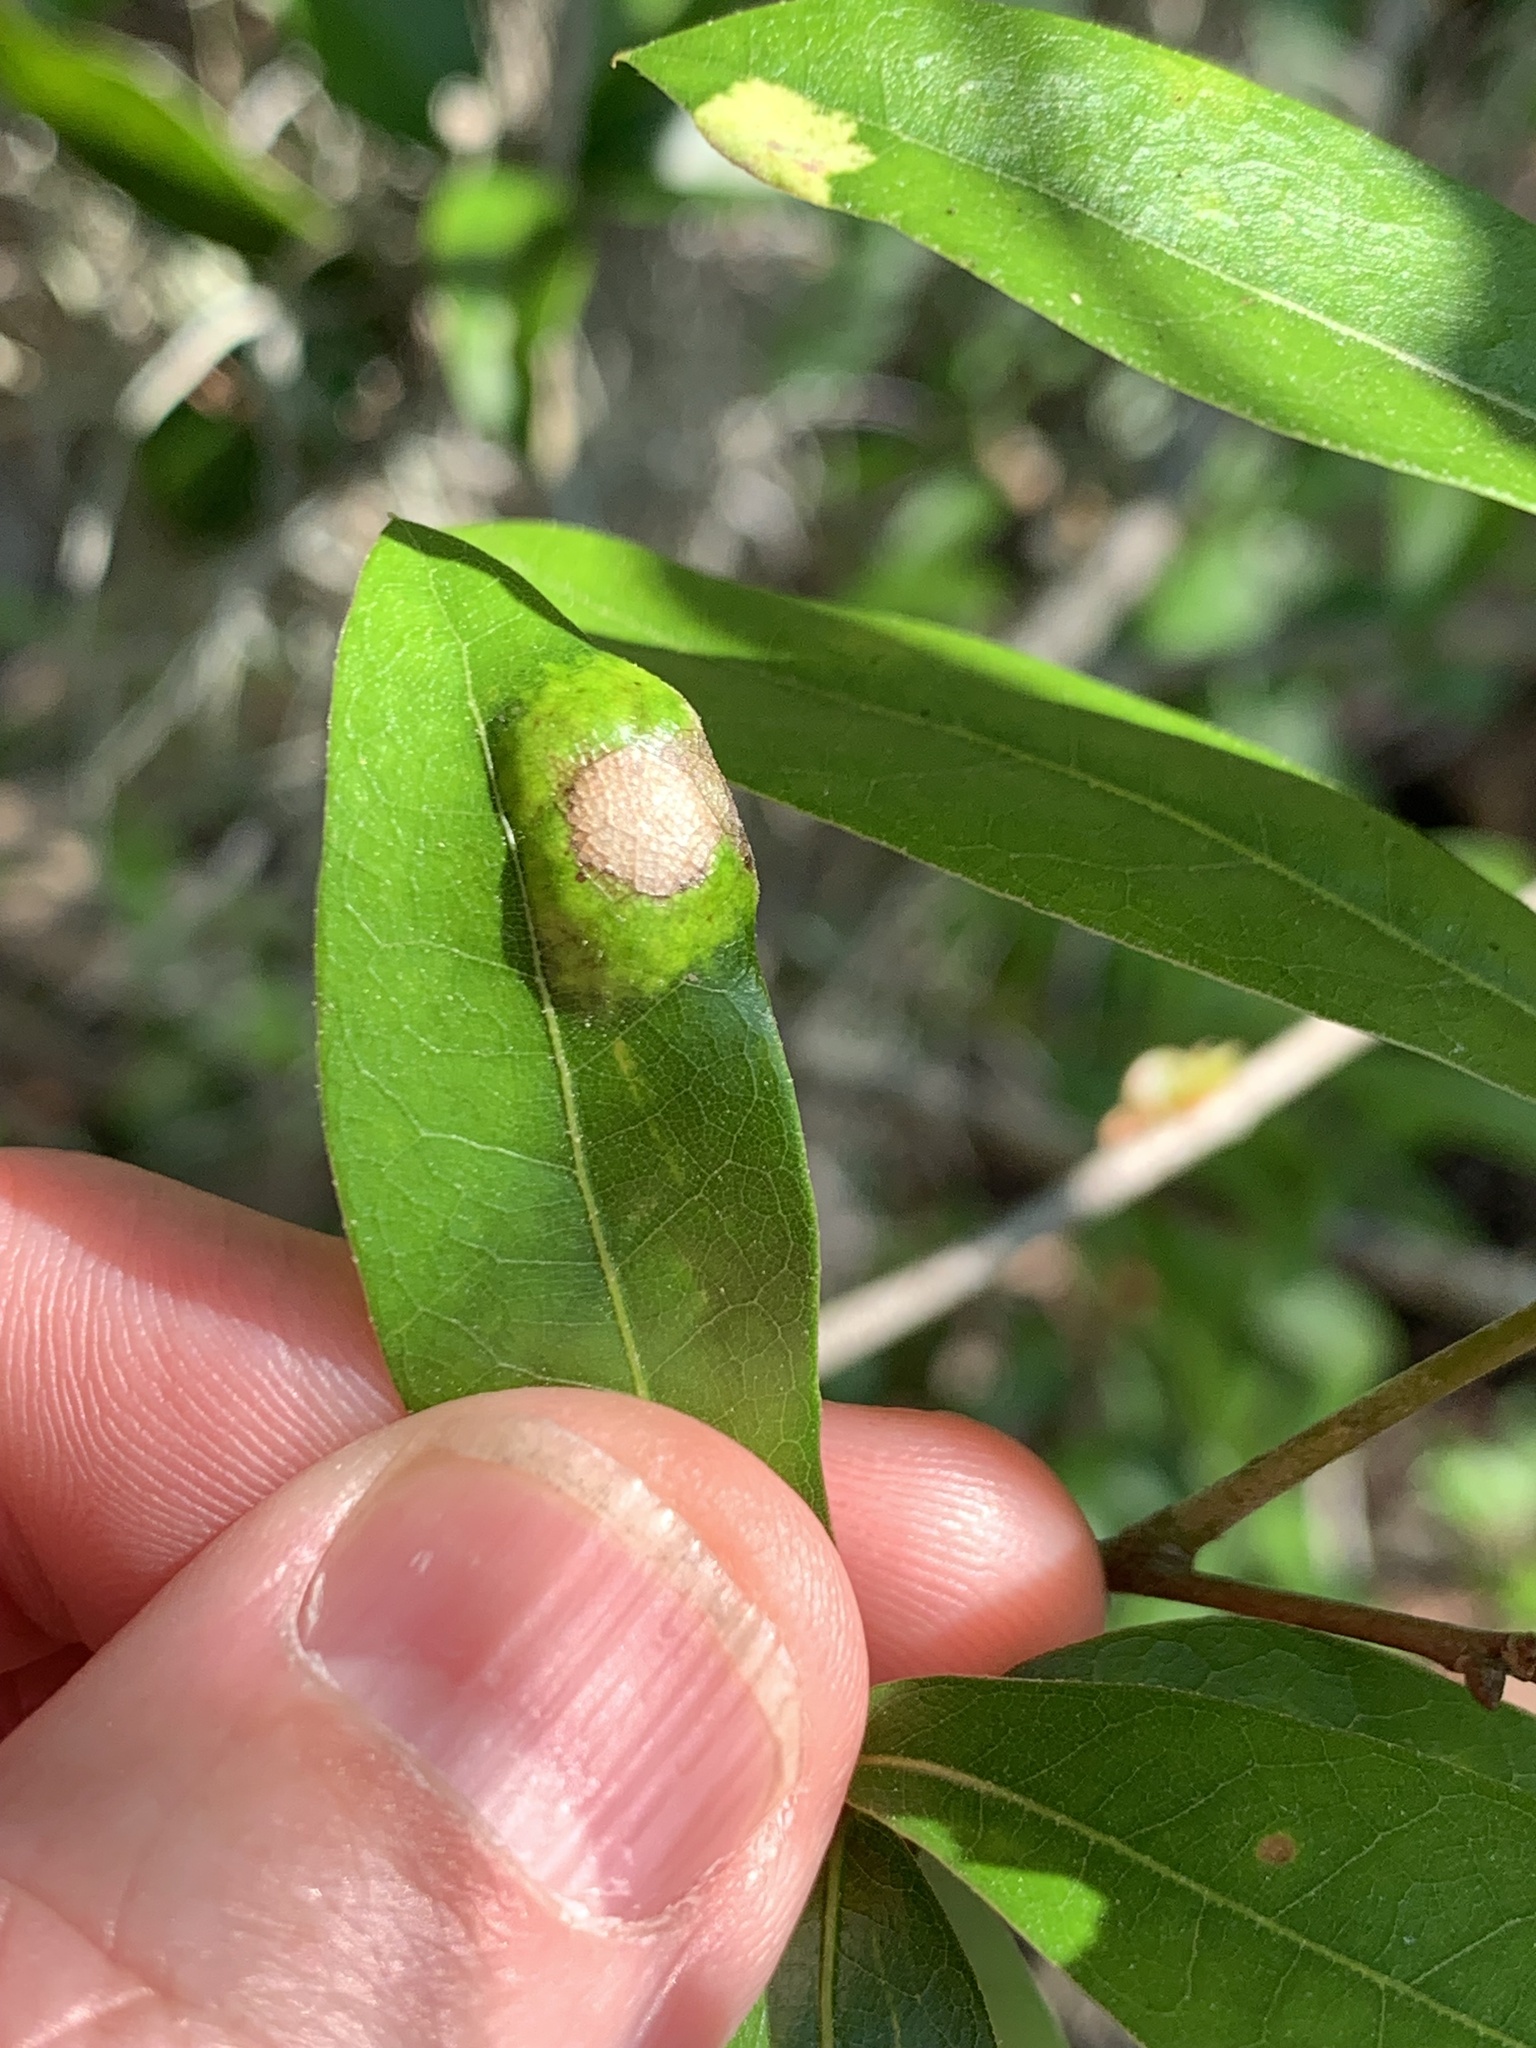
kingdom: Fungi
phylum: Ascomycota
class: Taphrinomycetes
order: Taphrinales
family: Taphrinaceae
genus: Taphrina
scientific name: Taphrina caerulescens
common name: Oak leaf blister
